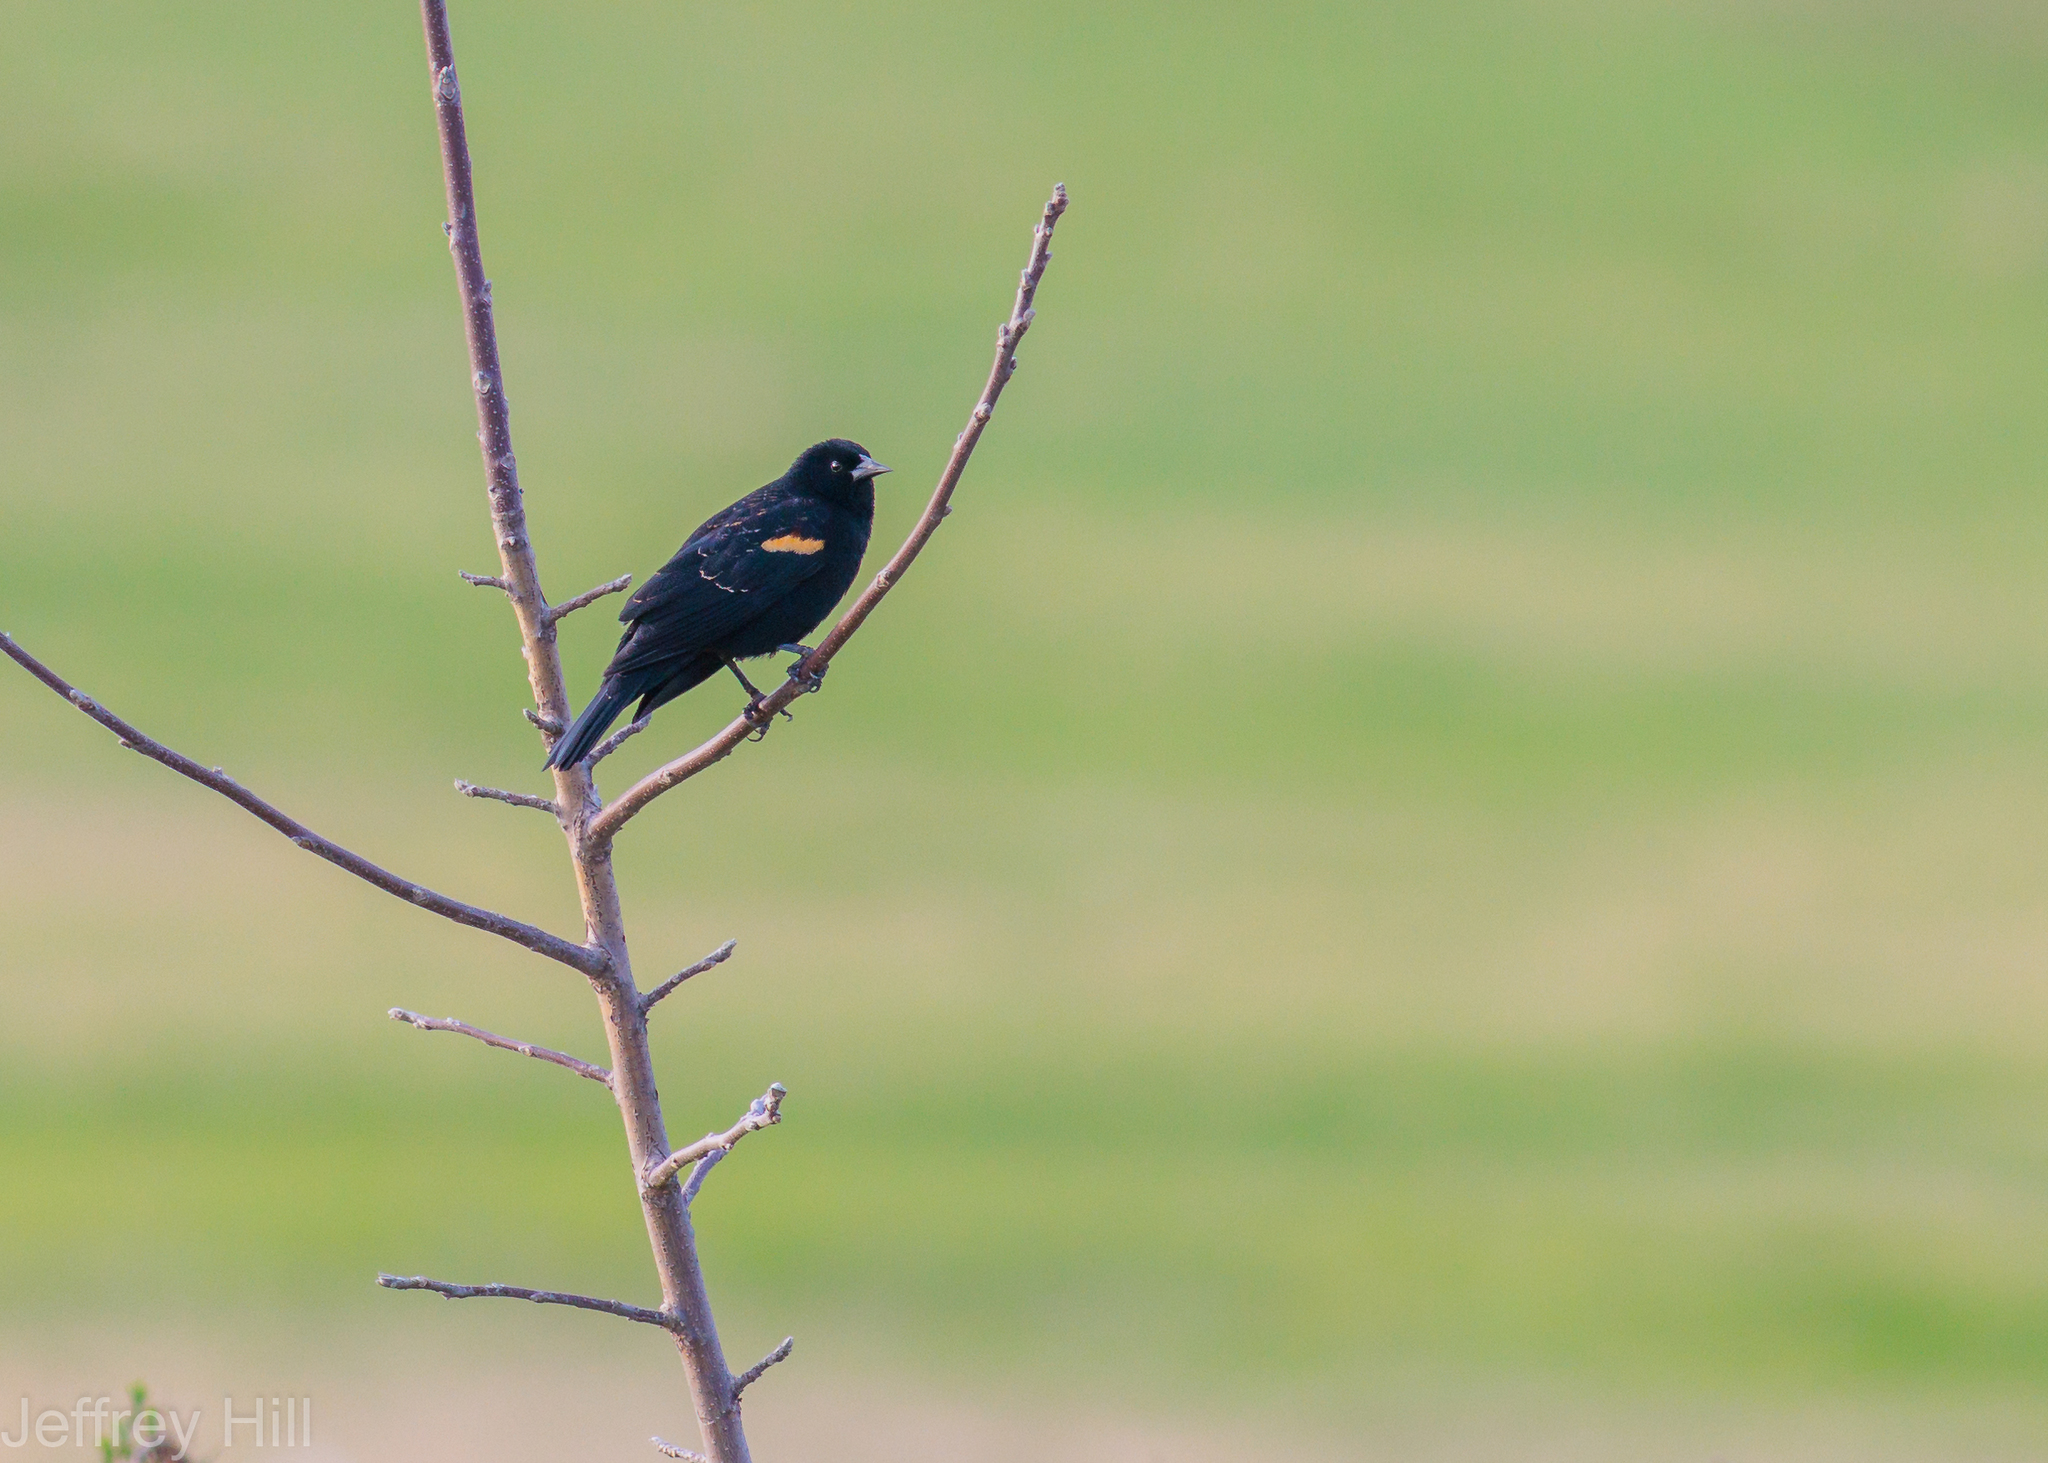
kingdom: Animalia
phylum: Chordata
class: Aves
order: Passeriformes
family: Icteridae
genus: Agelaius
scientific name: Agelaius phoeniceus
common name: Red-winged blackbird
